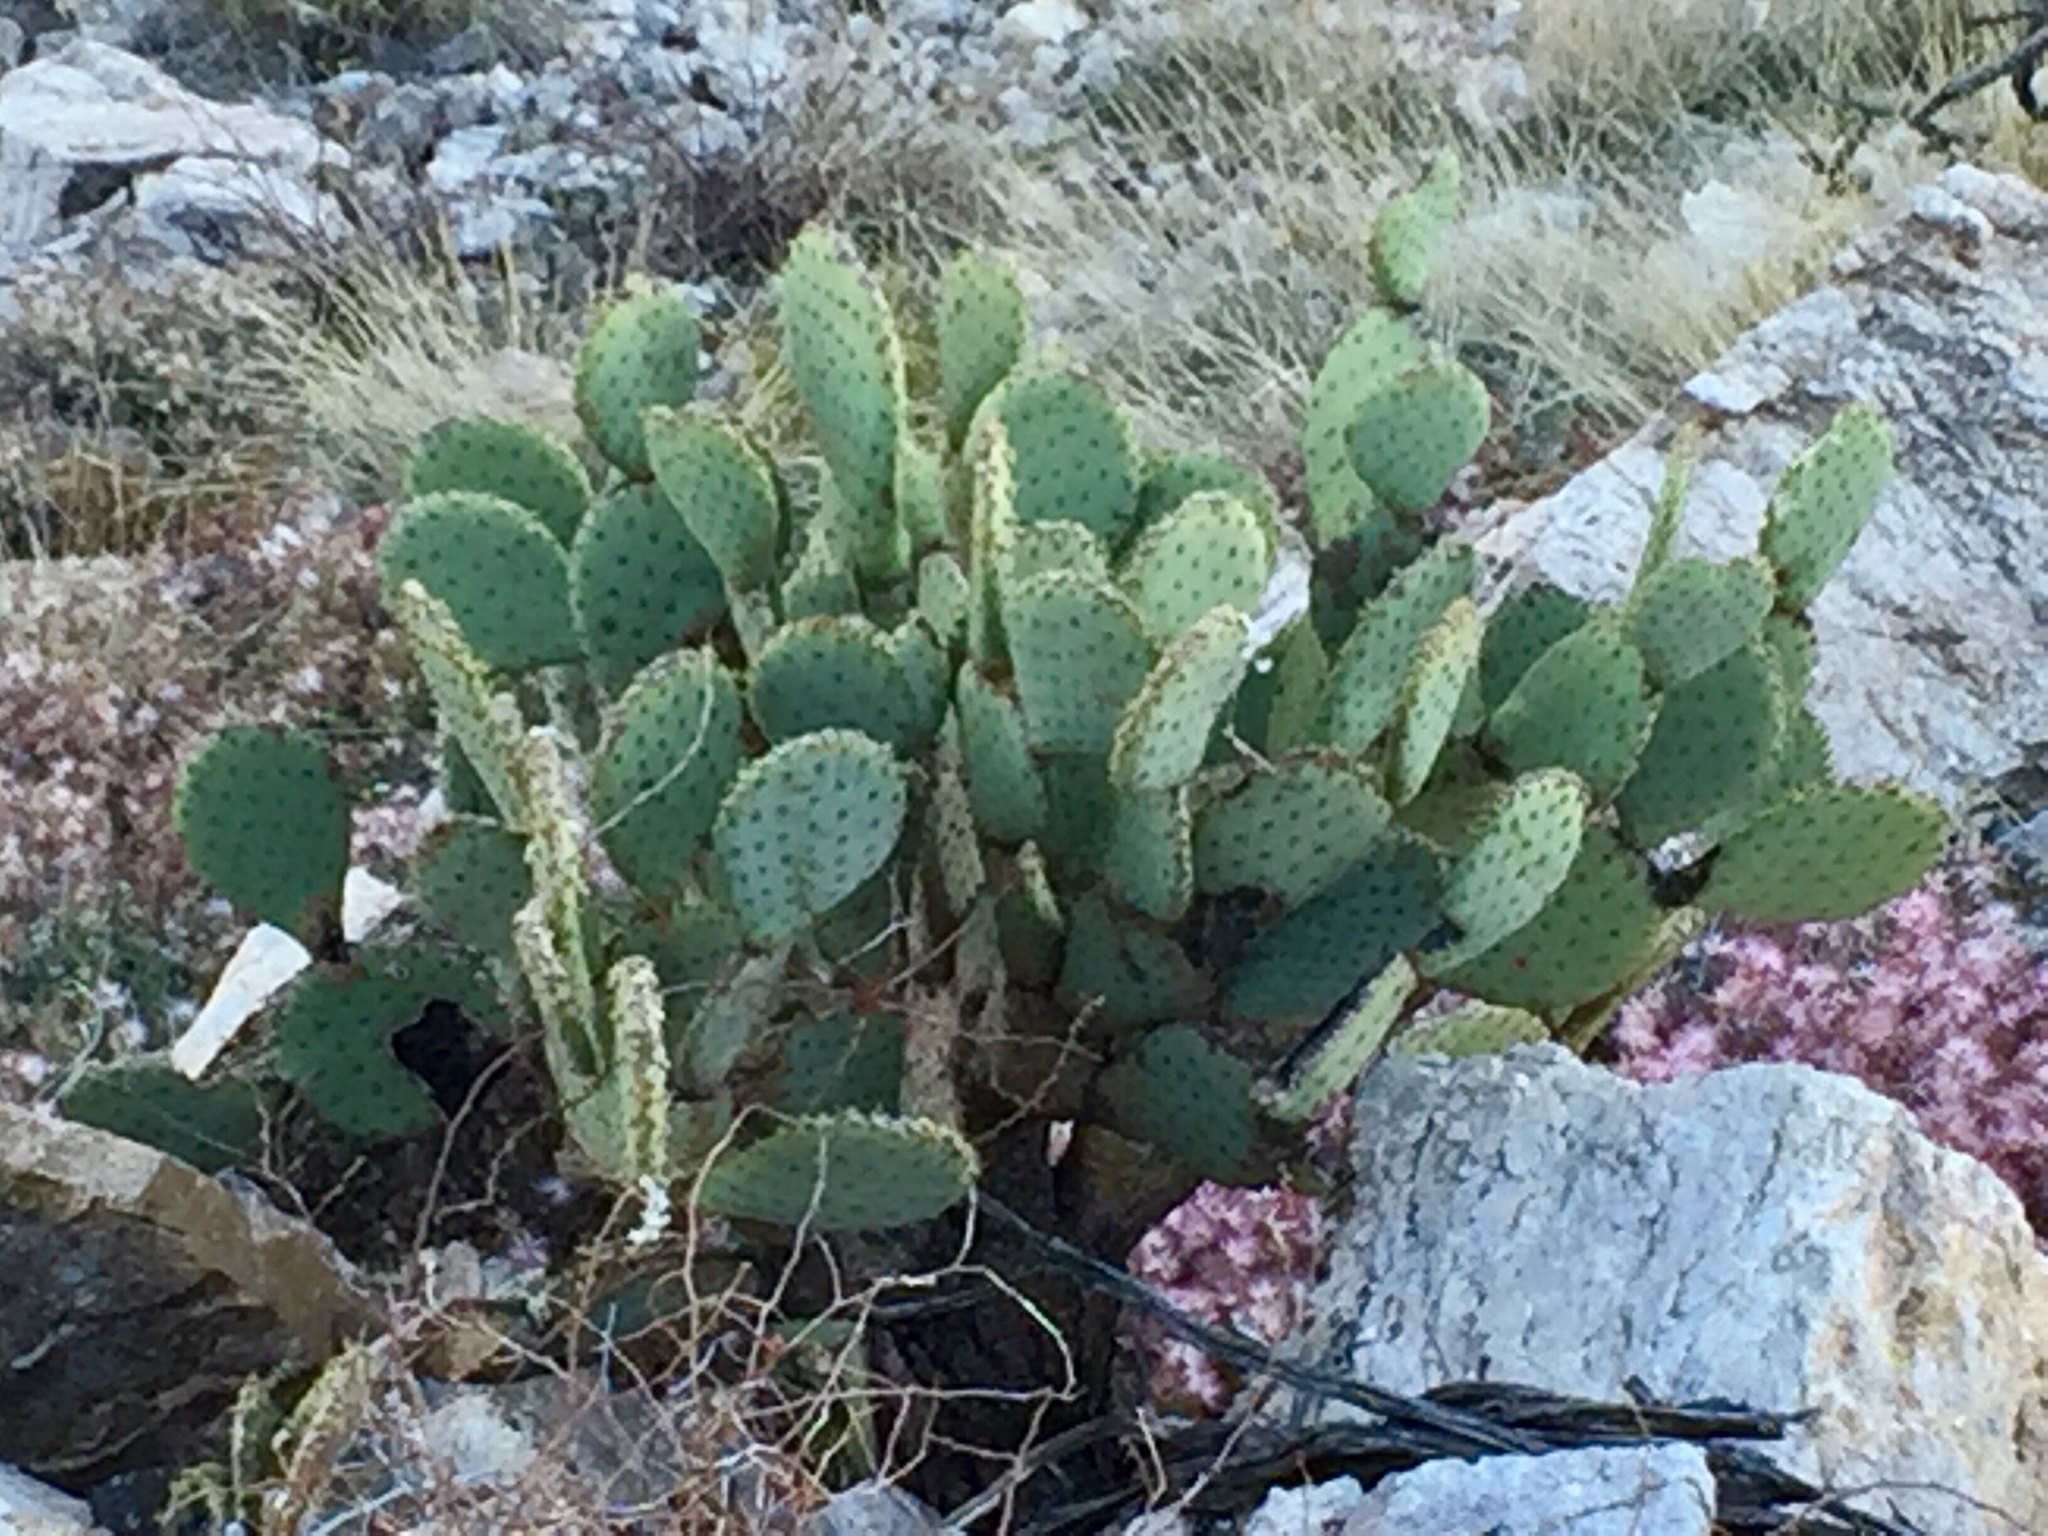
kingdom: Plantae
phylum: Tracheophyta
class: Magnoliopsida
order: Caryophyllales
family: Cactaceae
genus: Opuntia
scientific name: Opuntia chlorotica
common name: Dollar-joint prickly-pear
